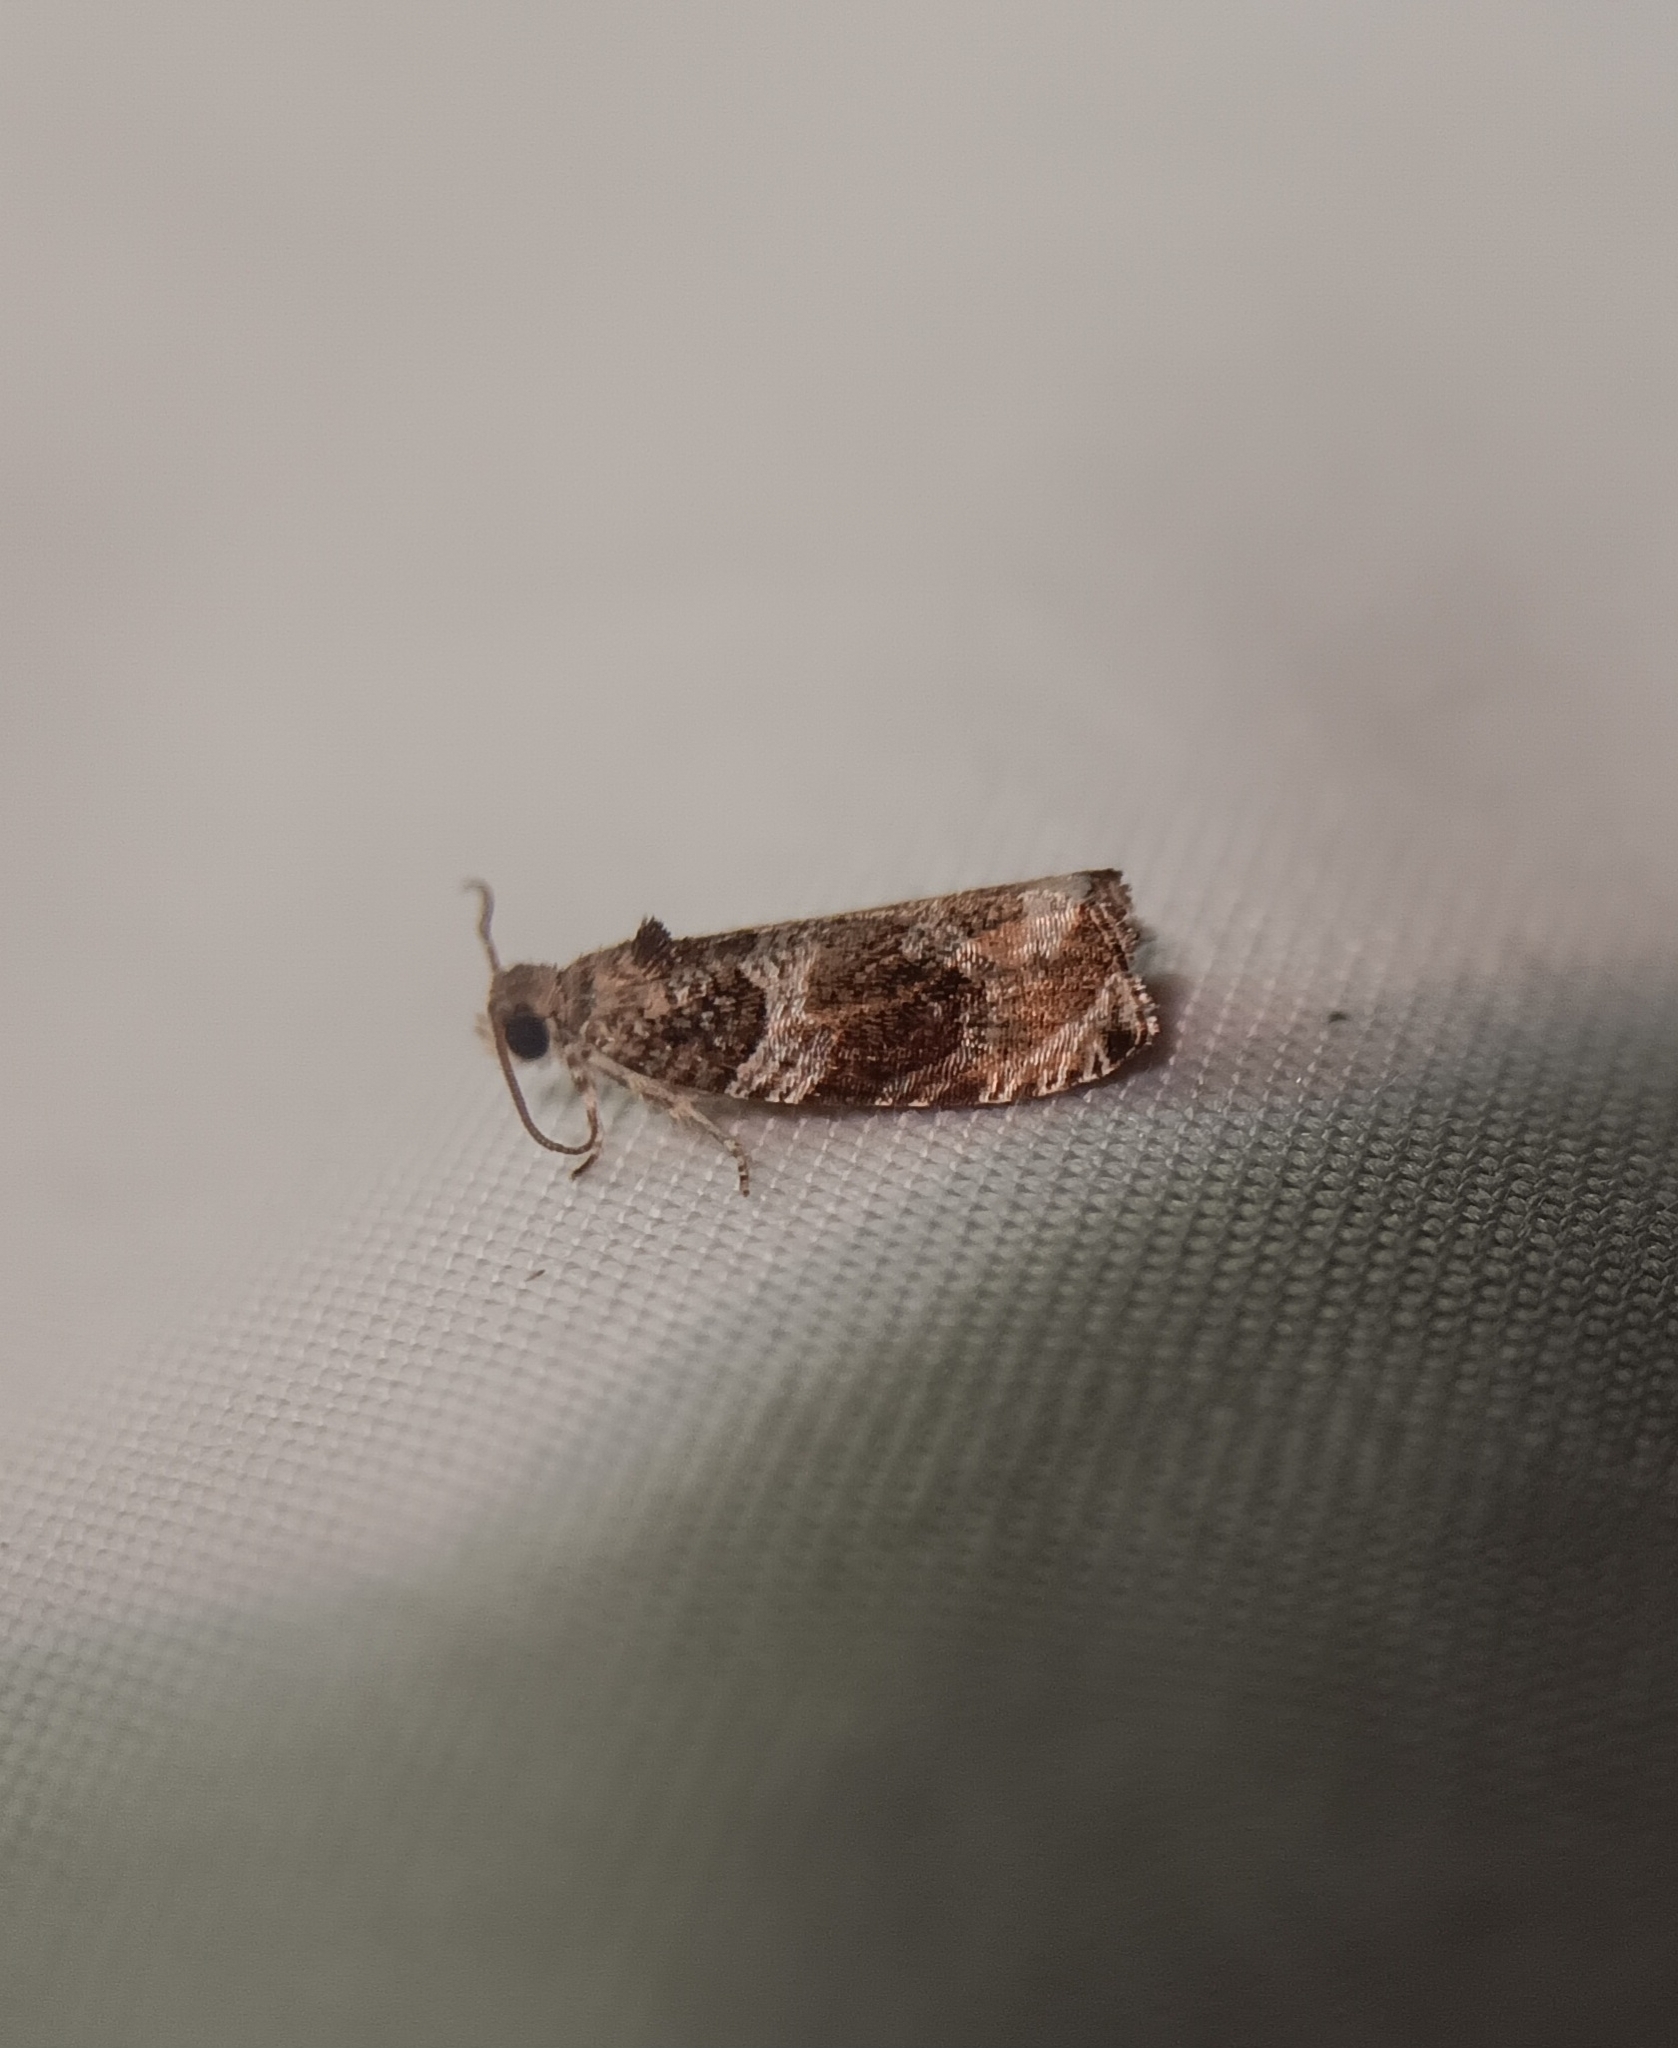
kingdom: Animalia
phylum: Arthropoda
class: Insecta
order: Lepidoptera
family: Tortricidae
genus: Olethreutes
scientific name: Olethreutes appendiceum
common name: Serviceberry leafroller
